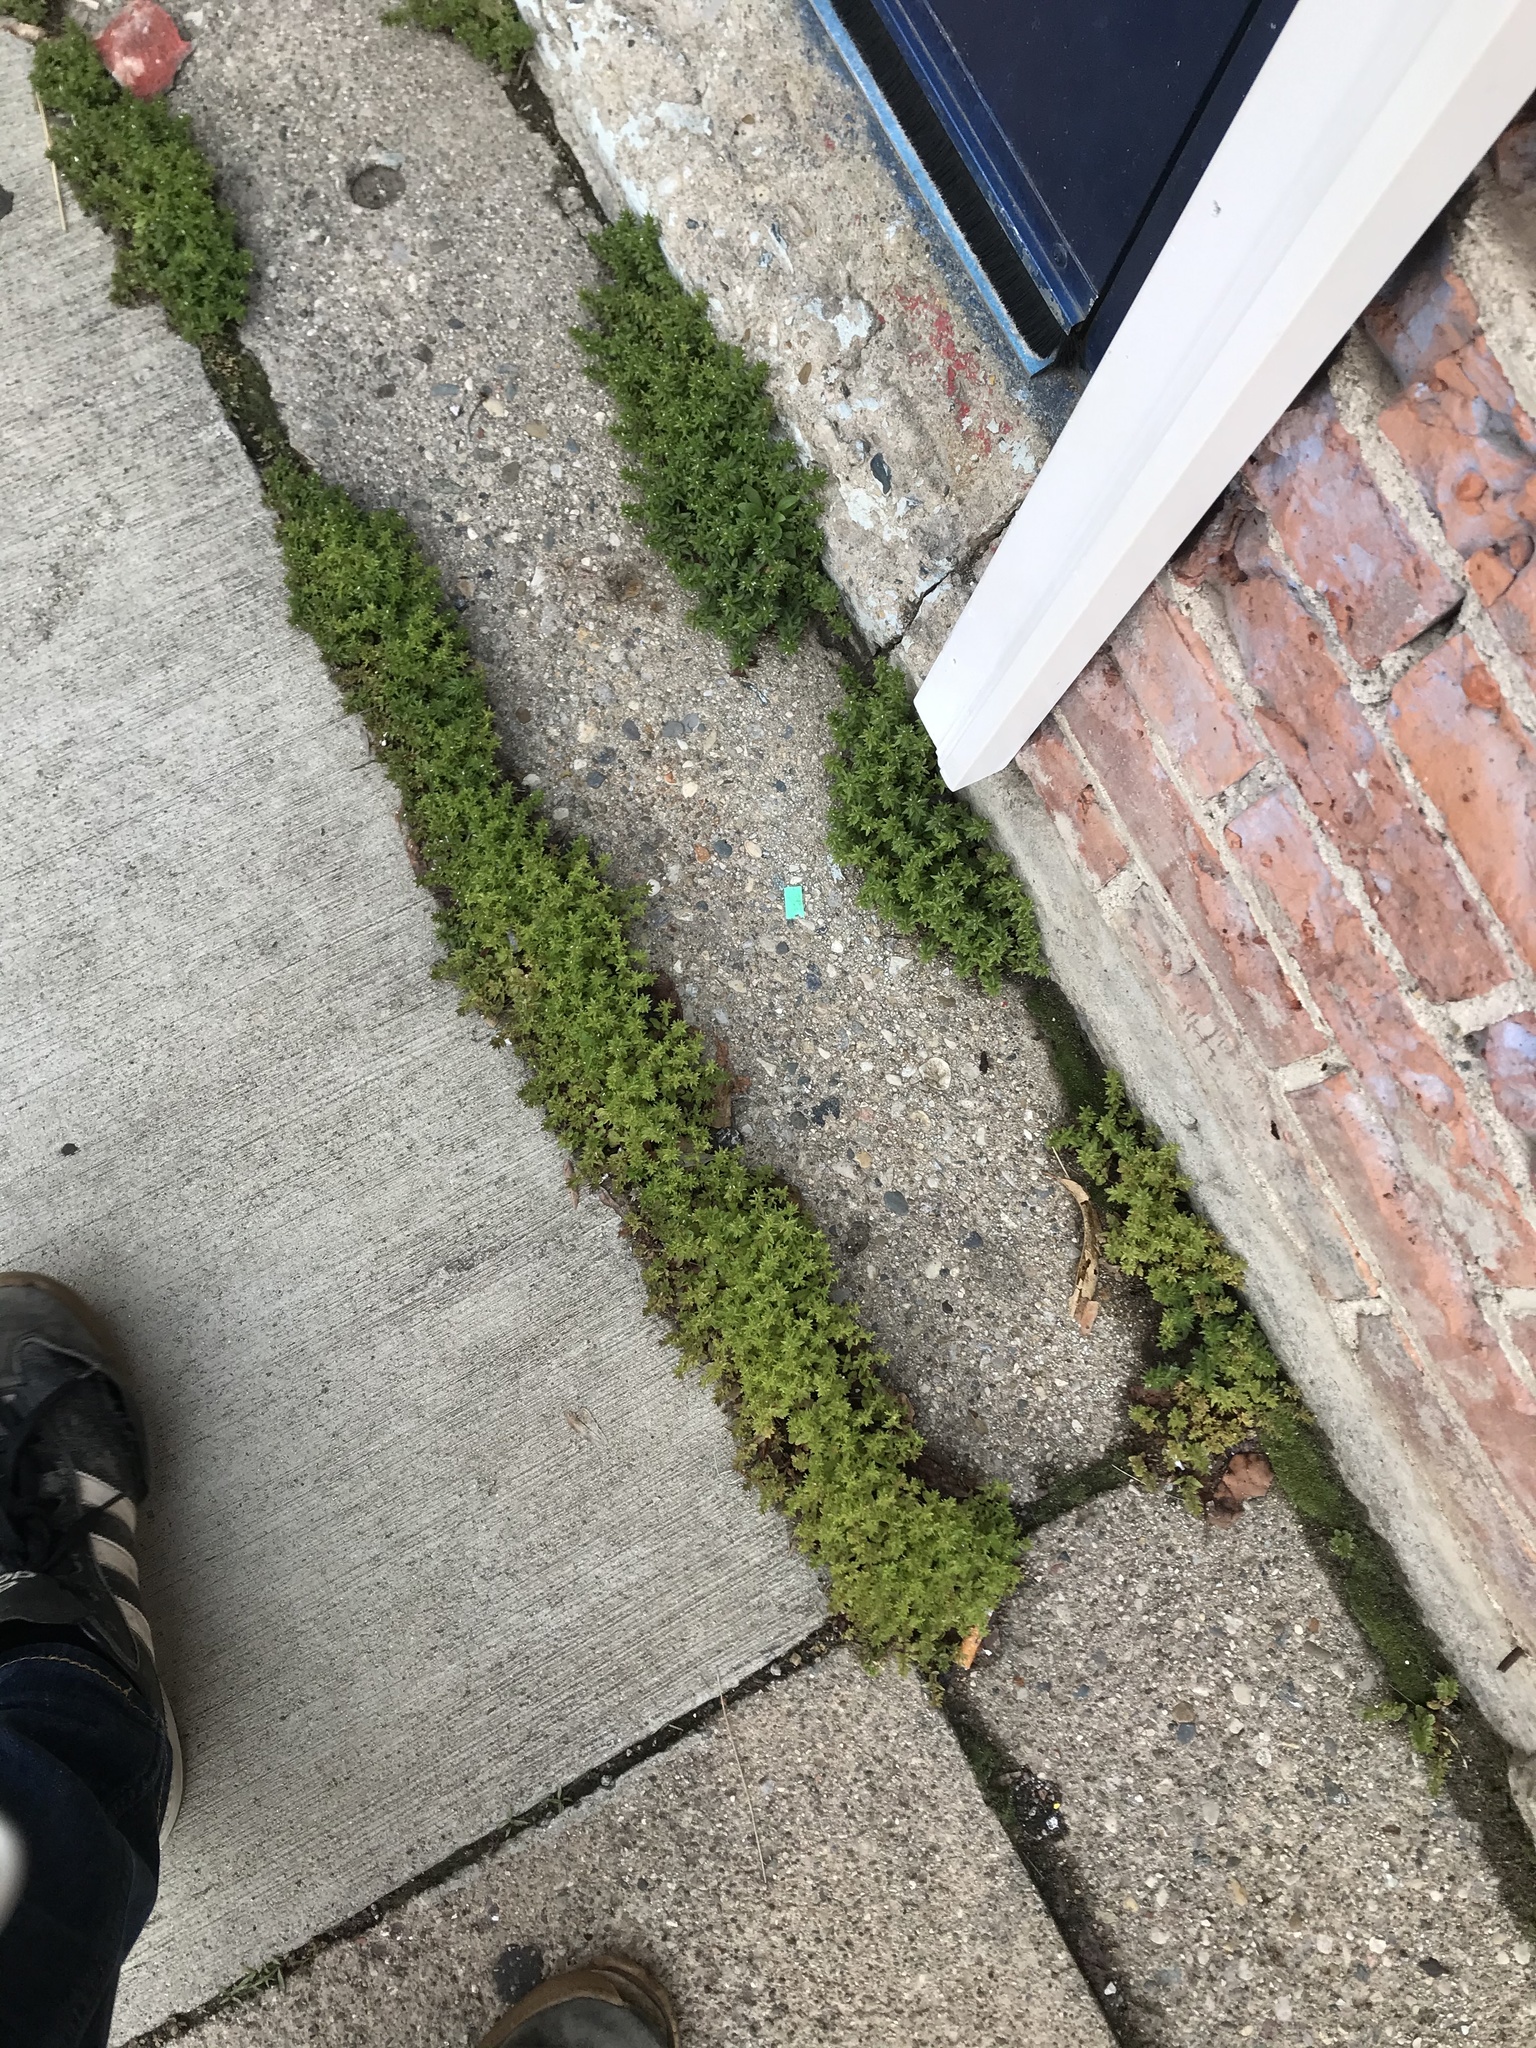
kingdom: Plantae
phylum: Tracheophyta
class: Magnoliopsida
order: Lamiales
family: Plantaginaceae
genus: Veronica
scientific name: Veronica arvensis
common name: Corn speedwell
